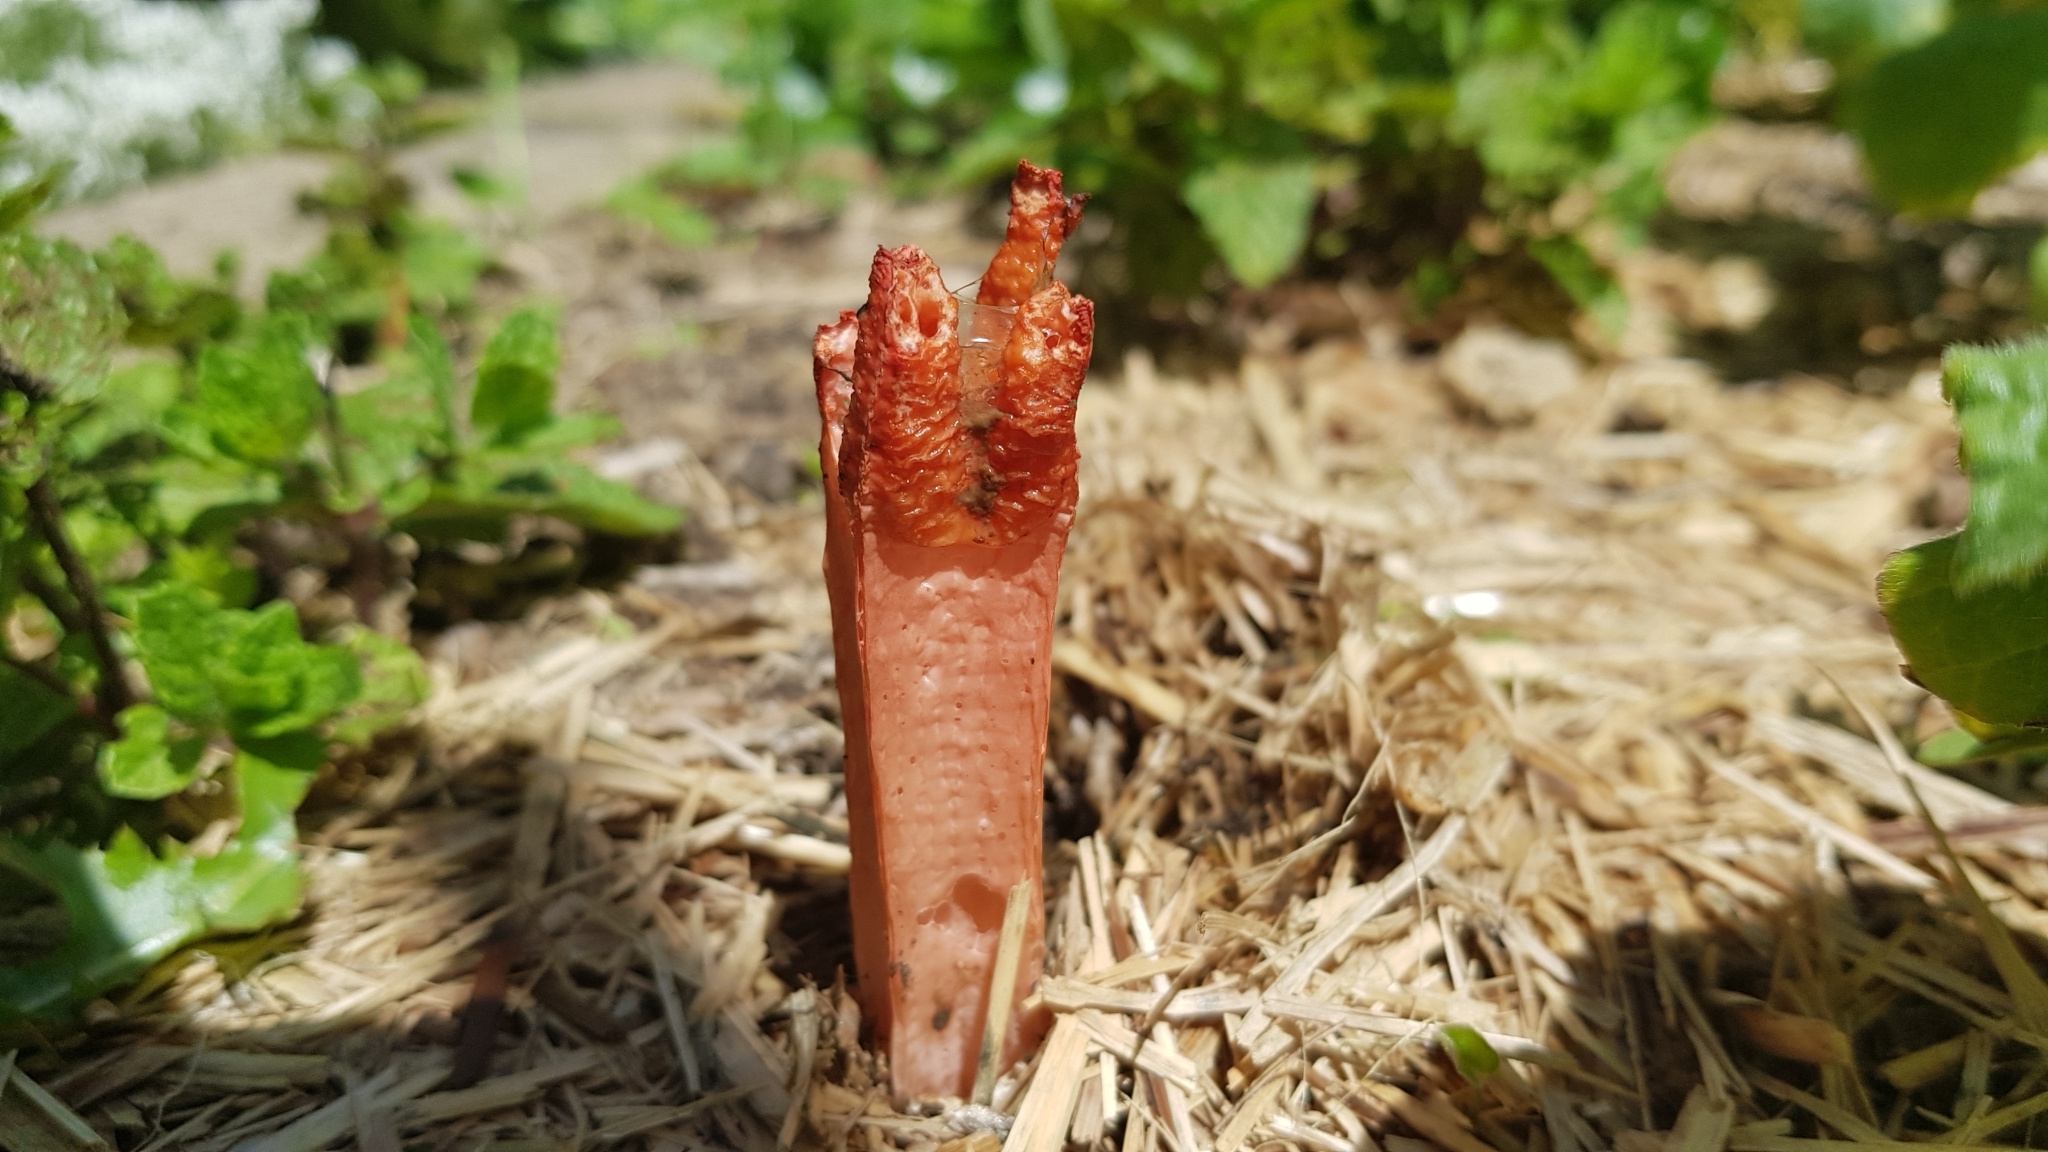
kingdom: Fungi
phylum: Basidiomycota
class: Agaricomycetes
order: Phallales
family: Phallaceae
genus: Lysurus
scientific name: Lysurus mokusin
